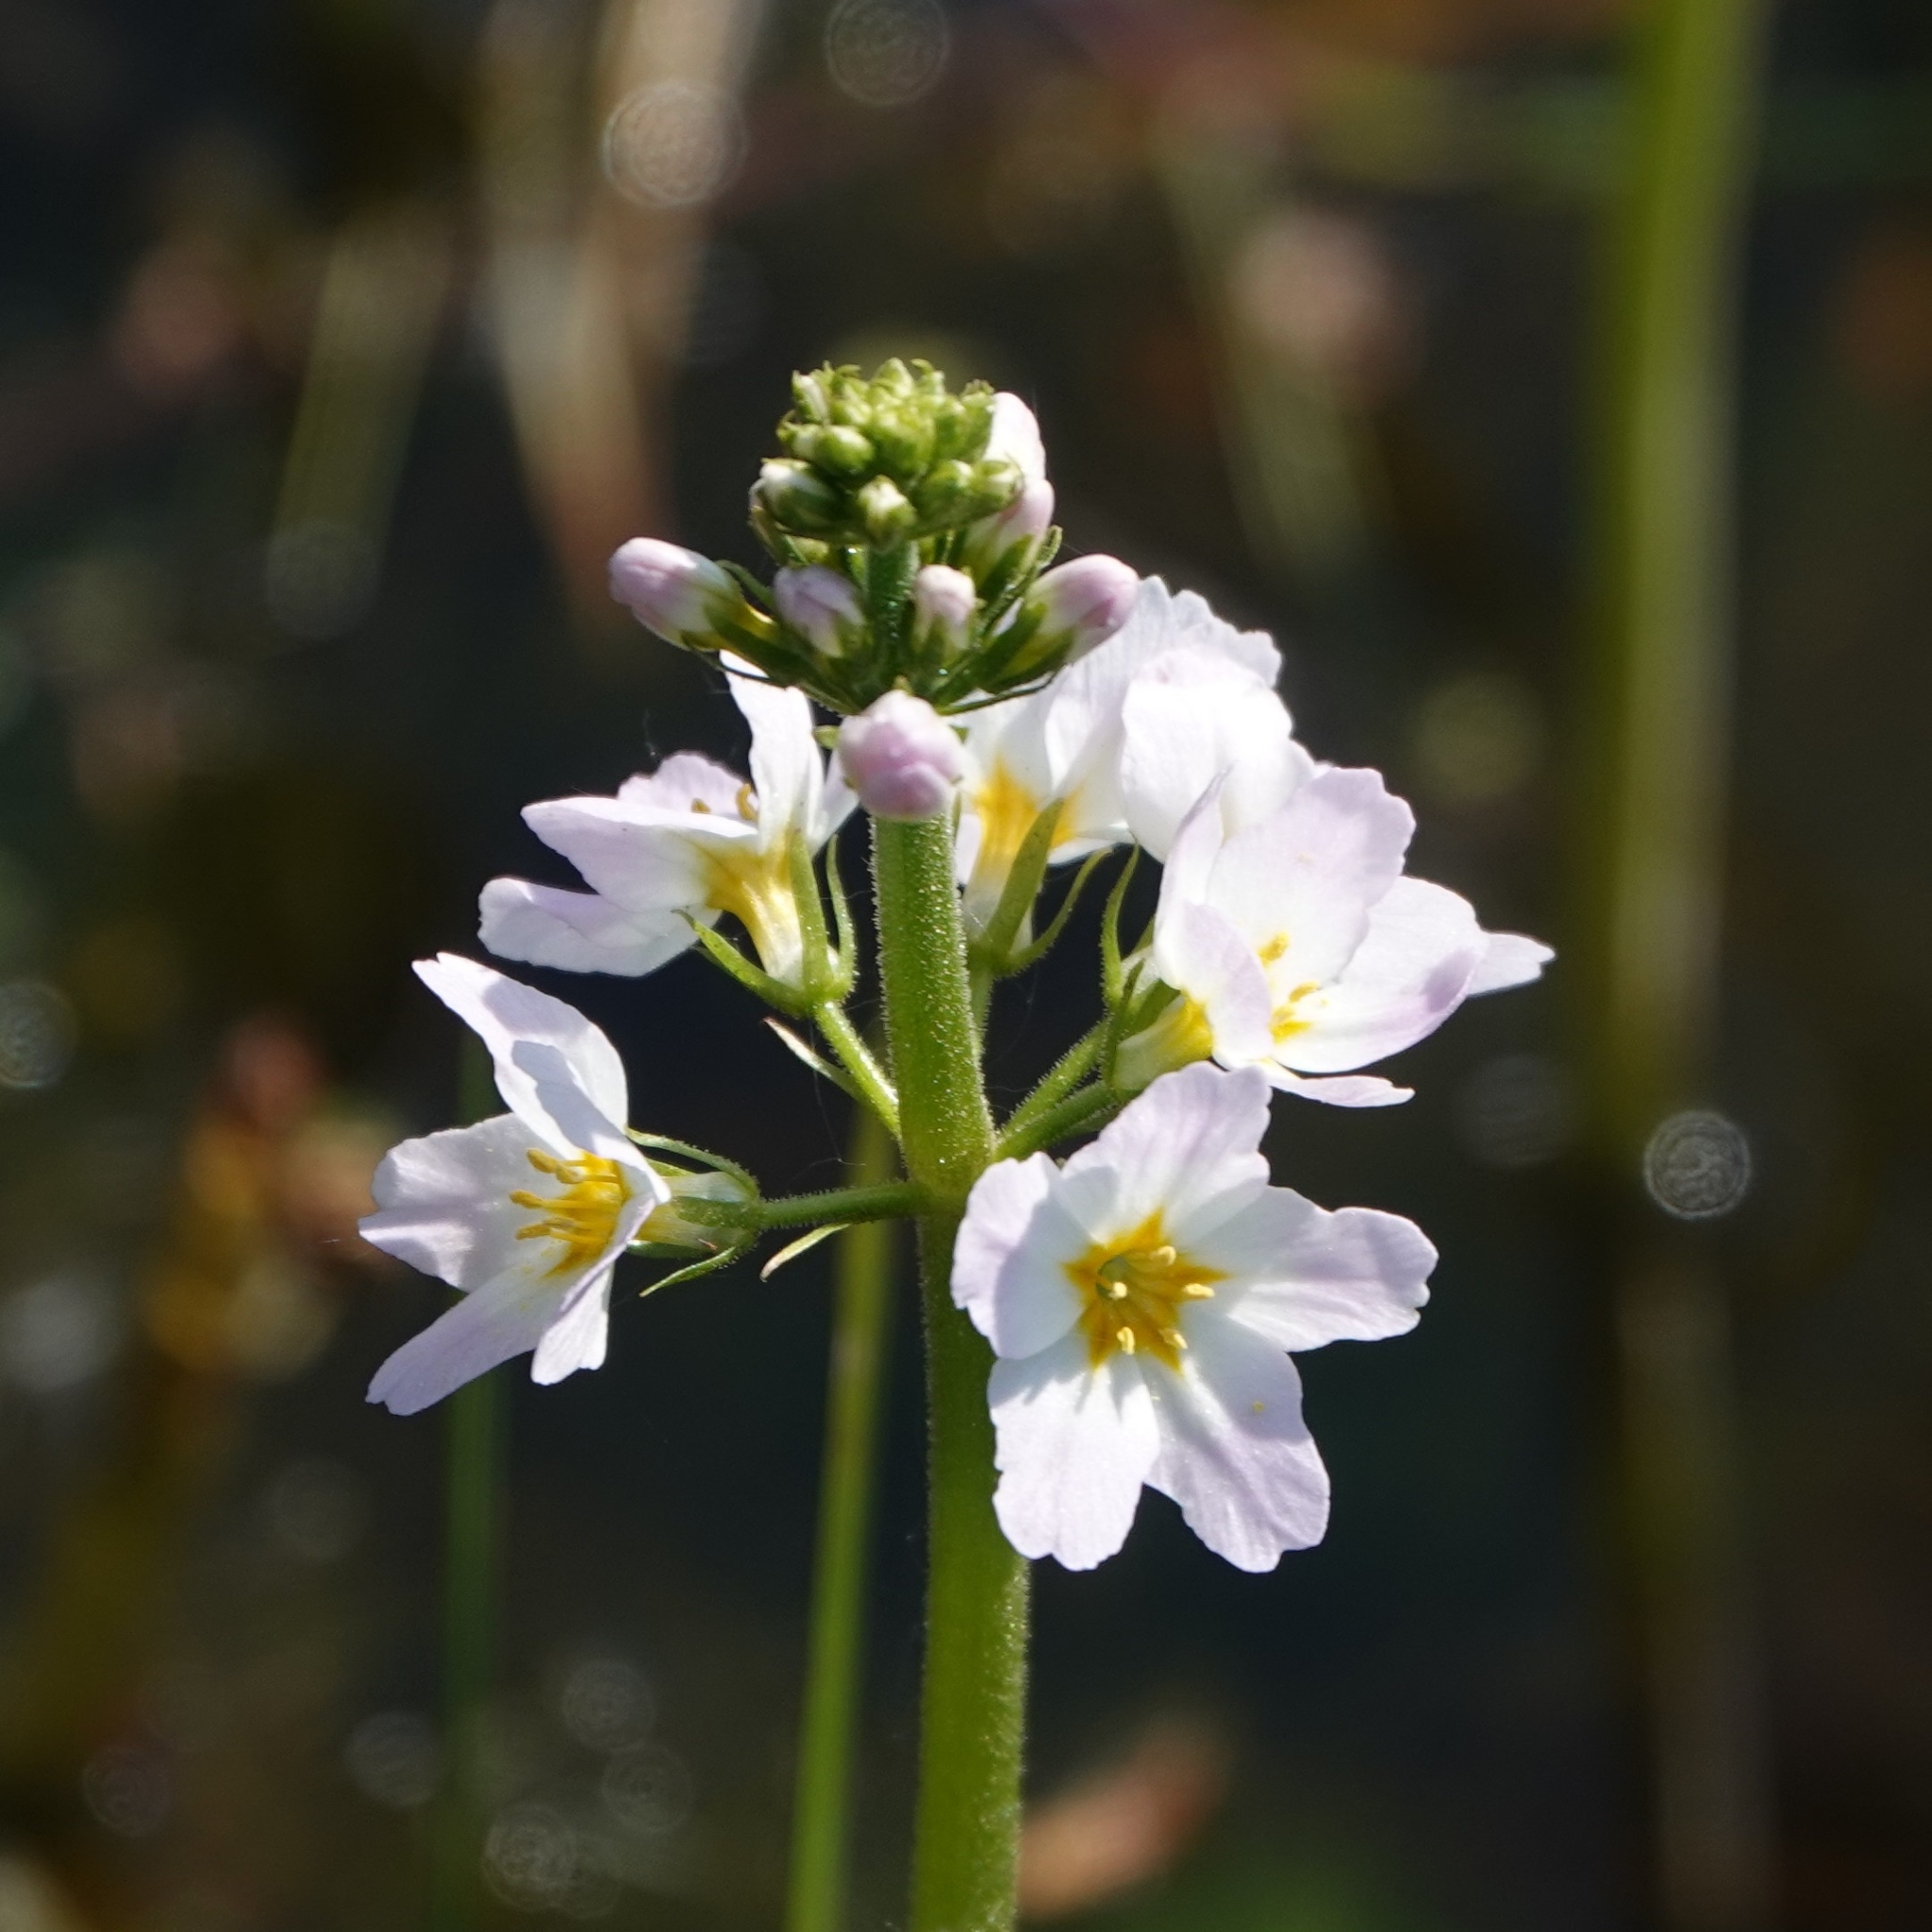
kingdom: Plantae
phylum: Tracheophyta
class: Magnoliopsida
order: Ericales
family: Primulaceae
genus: Hottonia
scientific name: Hottonia palustris
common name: Water-violet
